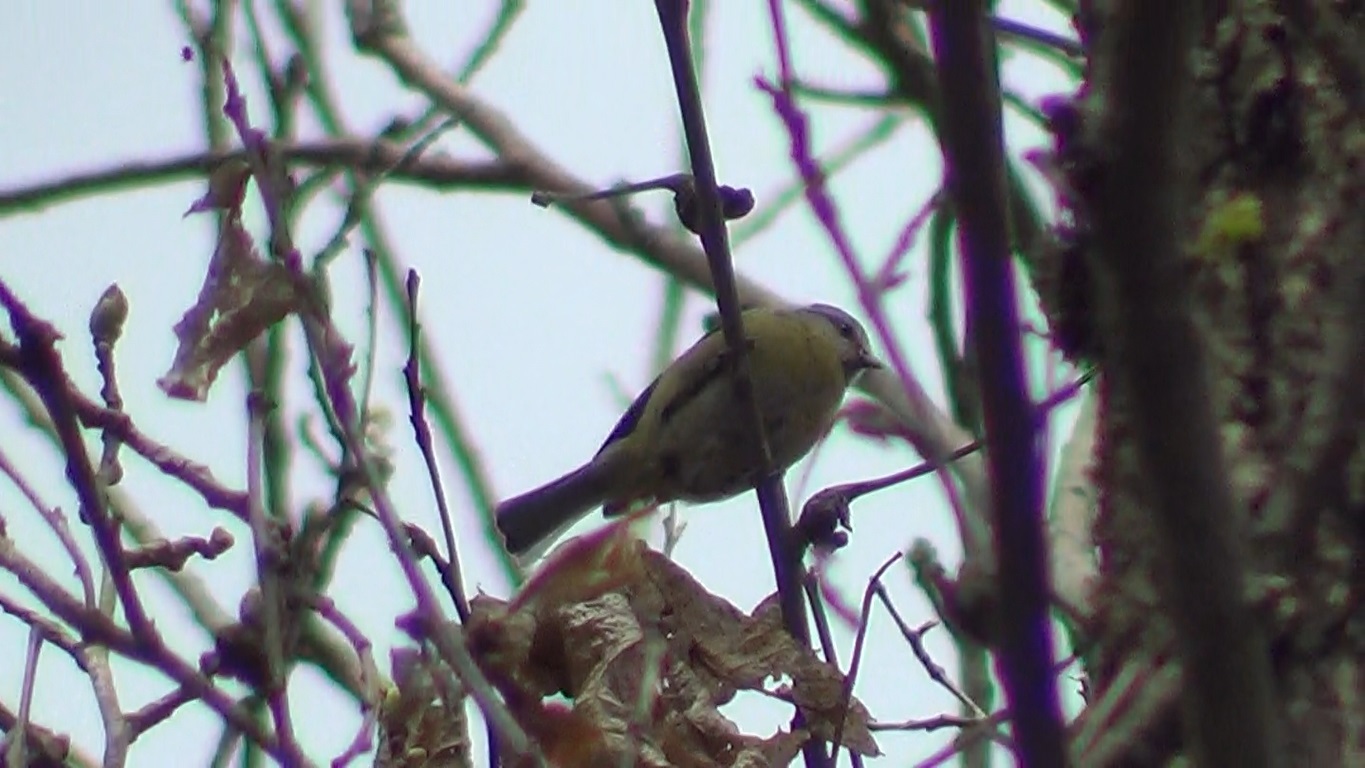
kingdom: Animalia
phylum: Chordata
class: Aves
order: Passeriformes
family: Paridae
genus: Cyanistes
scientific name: Cyanistes caeruleus
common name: Eurasian blue tit
